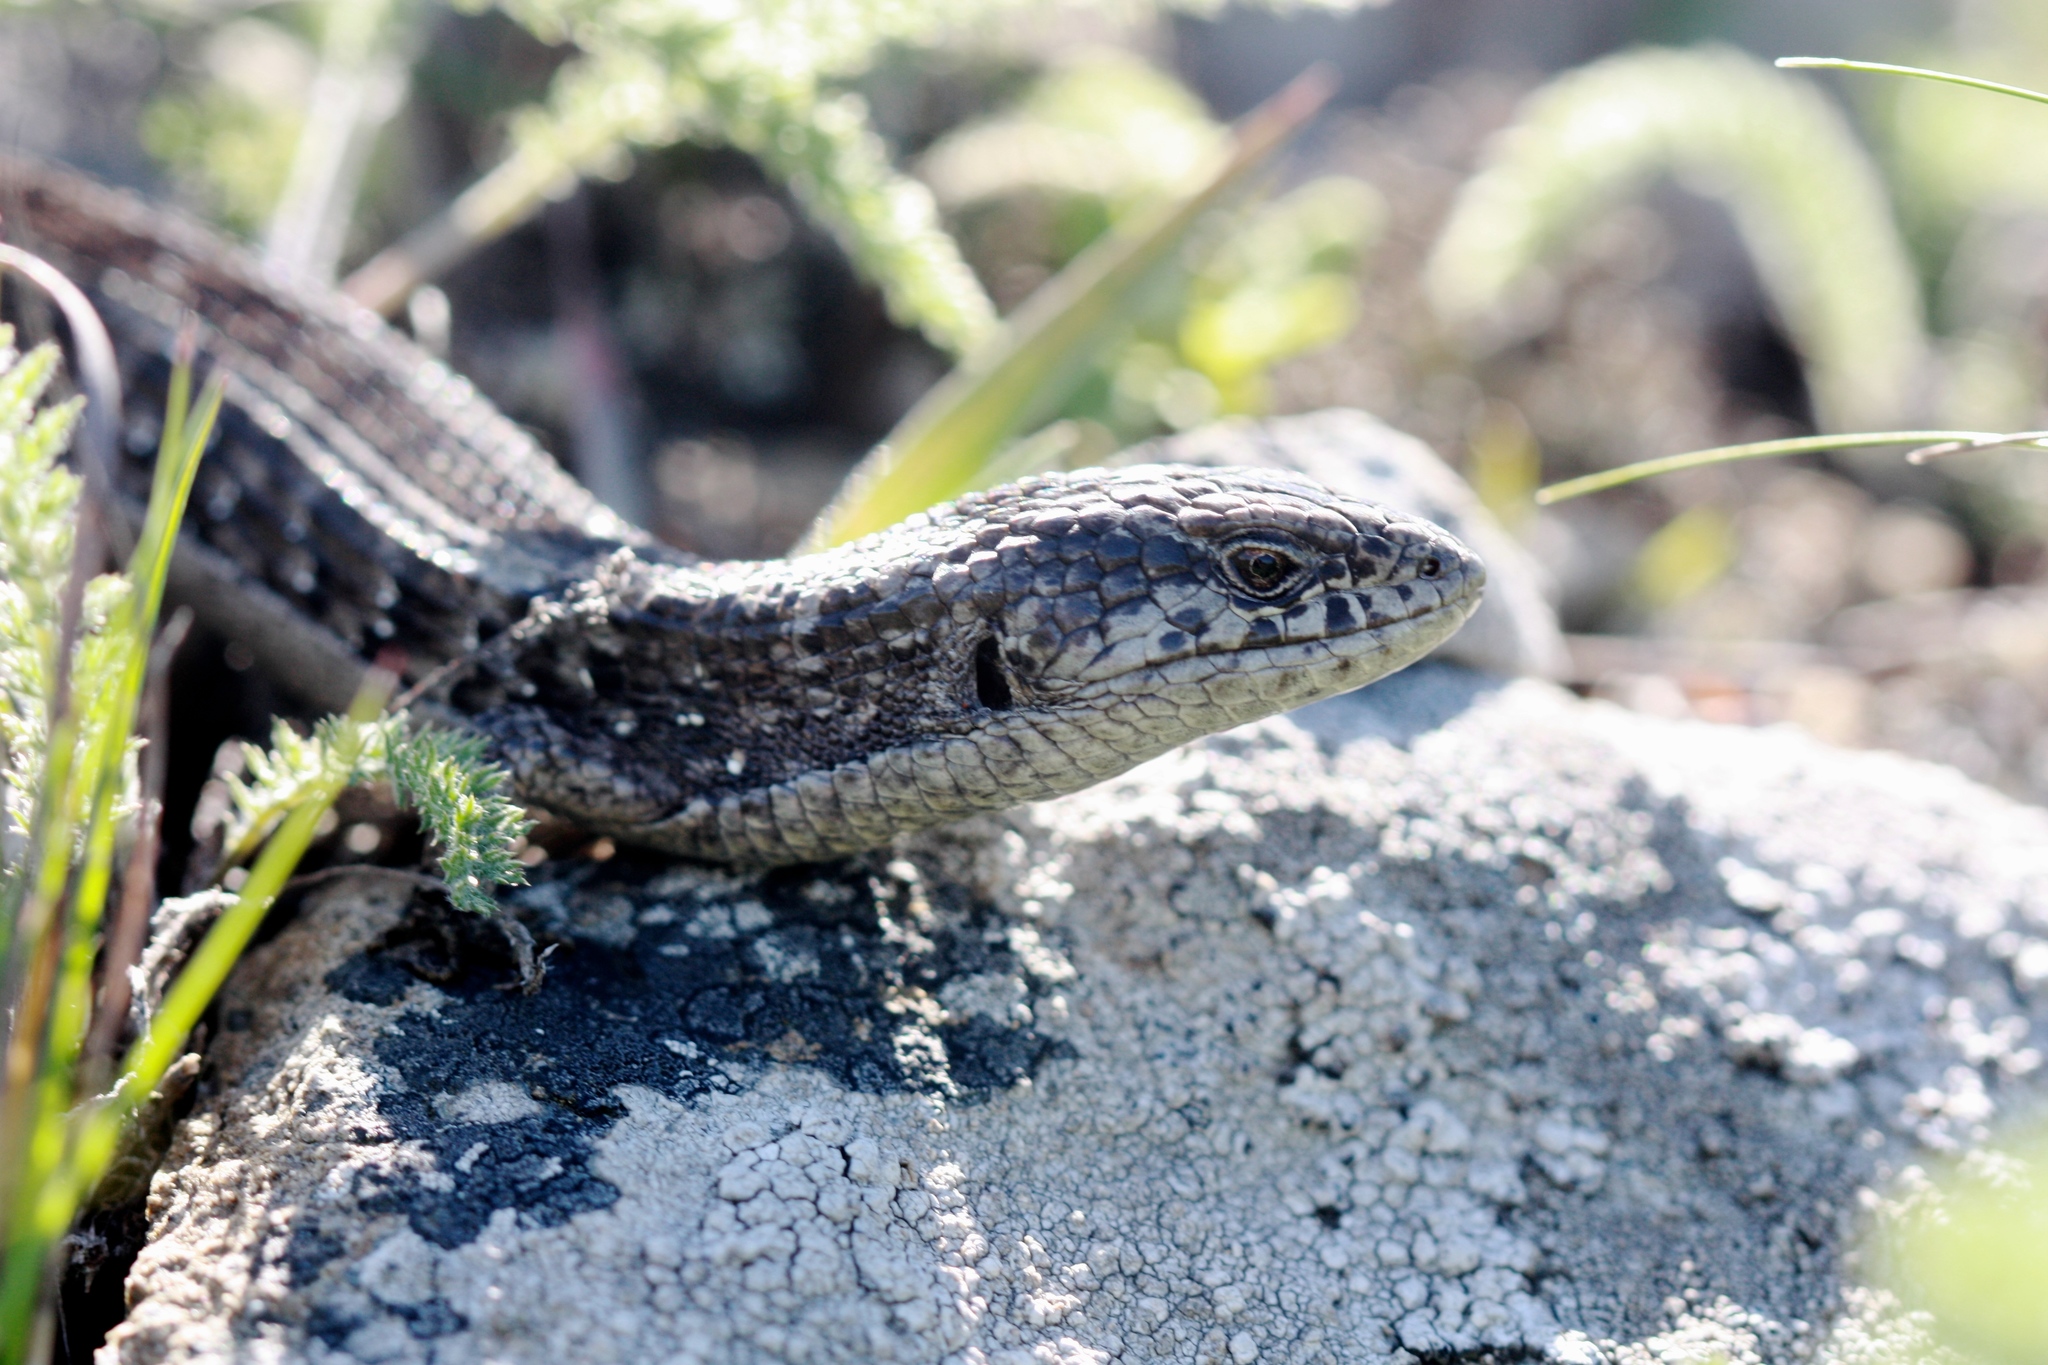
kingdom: Animalia
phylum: Chordata
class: Squamata
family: Anguidae
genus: Elgaria
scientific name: Elgaria coerulea
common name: Northern alligator lizard
